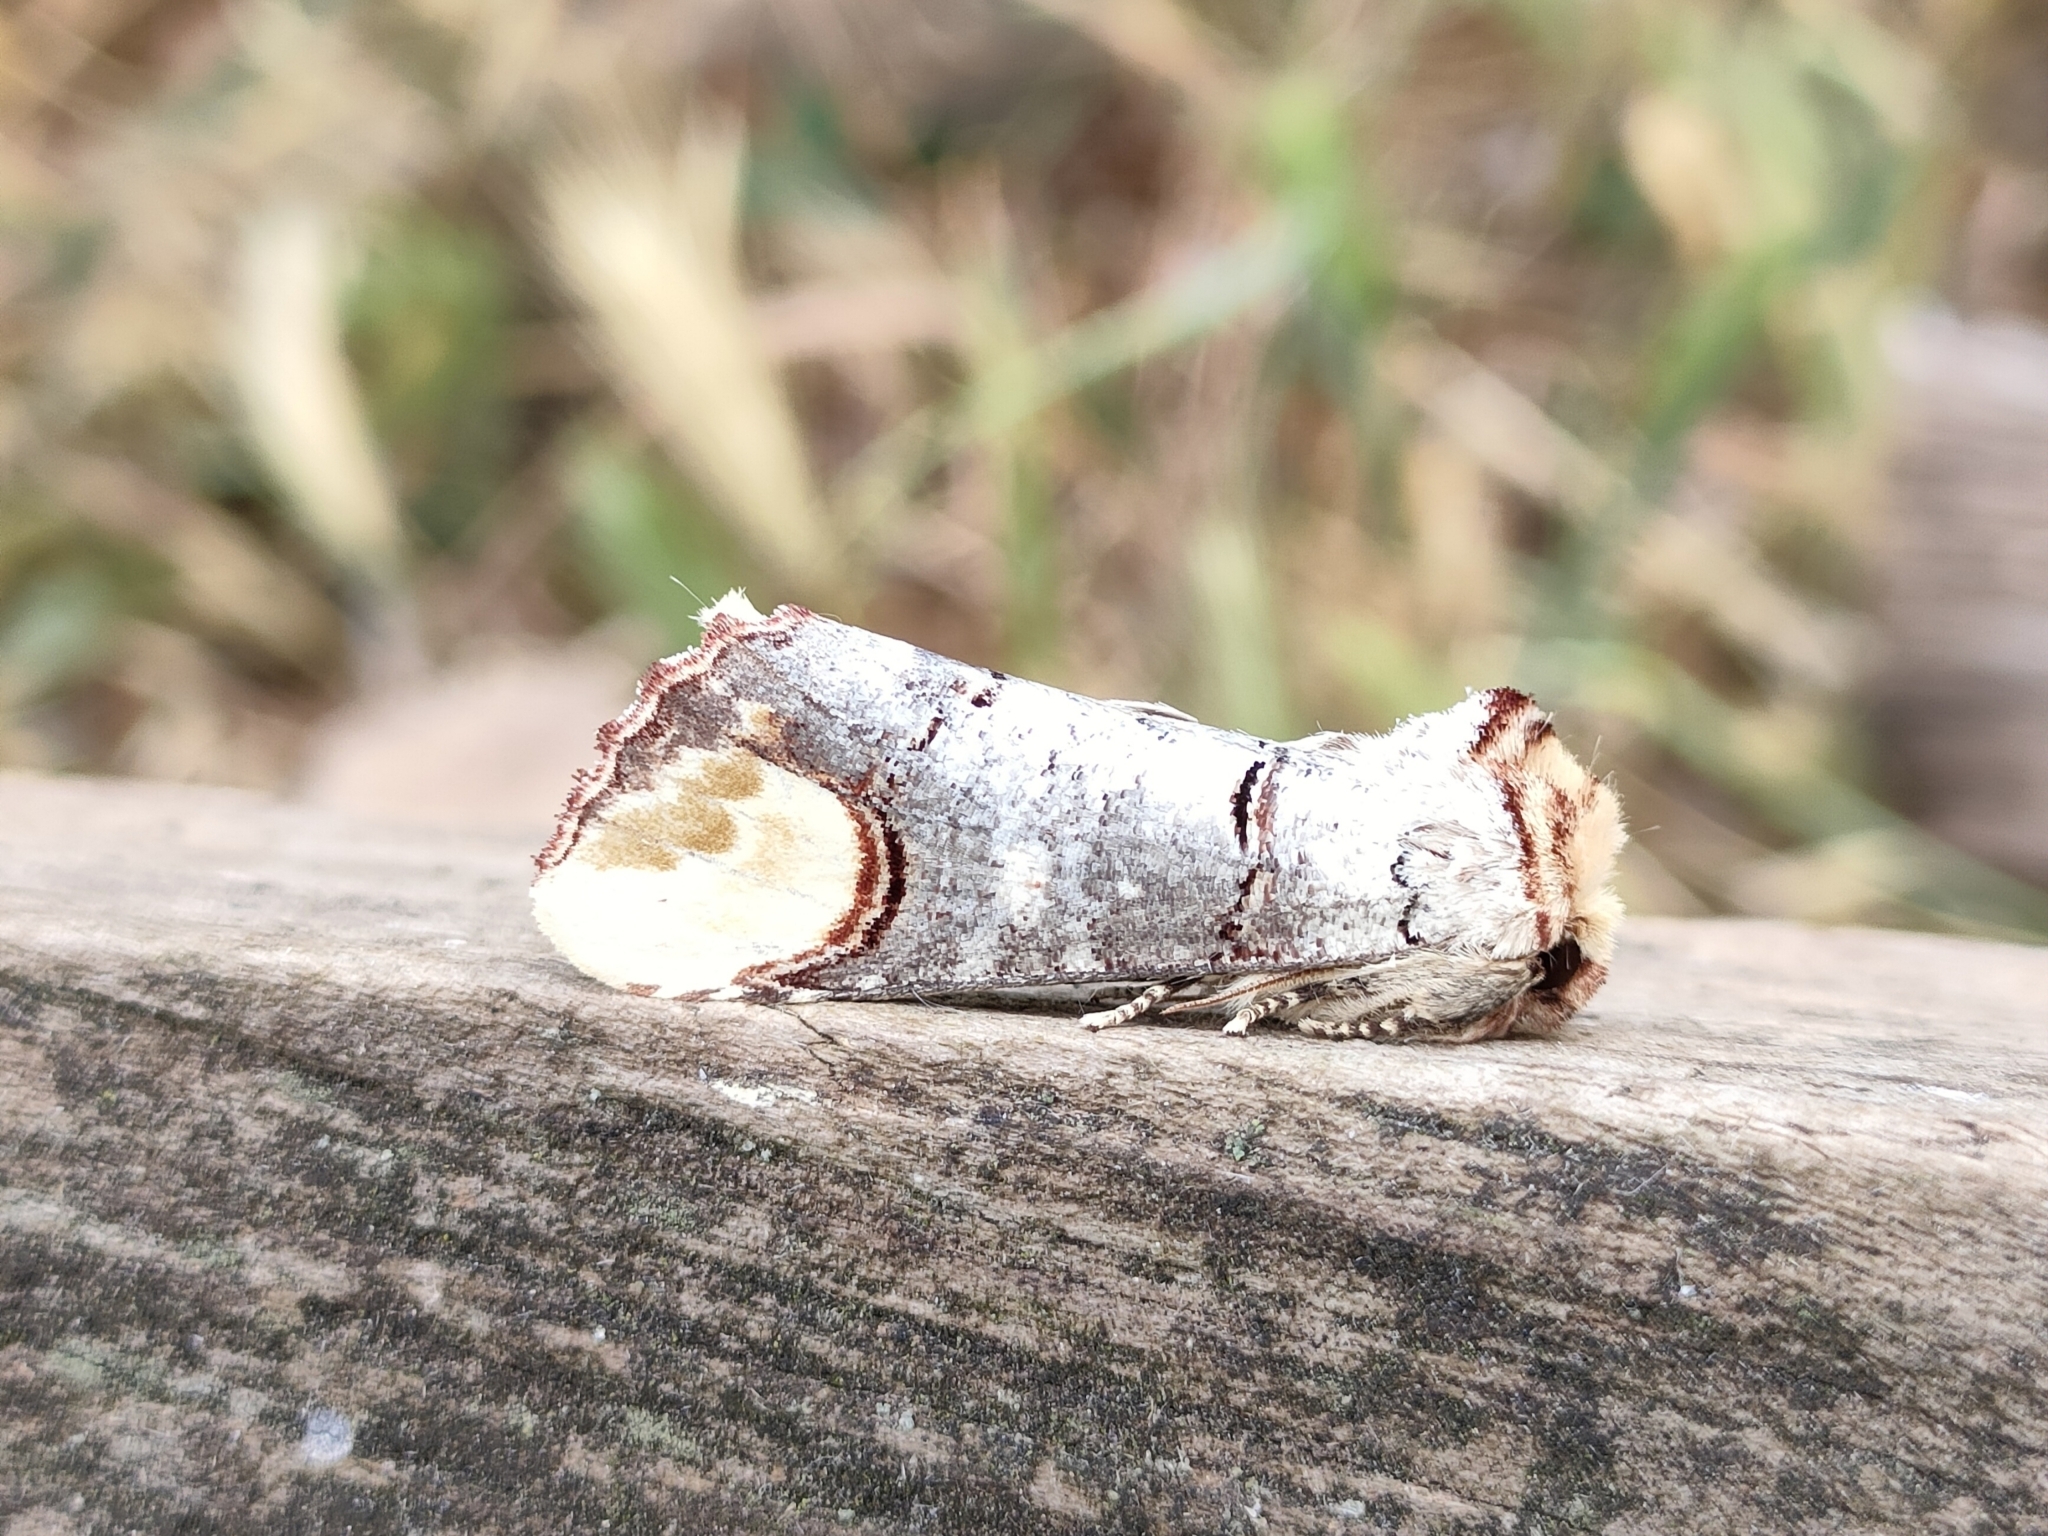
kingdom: Animalia
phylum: Arthropoda
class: Insecta
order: Lepidoptera
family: Notodontidae
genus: Phalera
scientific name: Phalera bucephala
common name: Buff-tip
